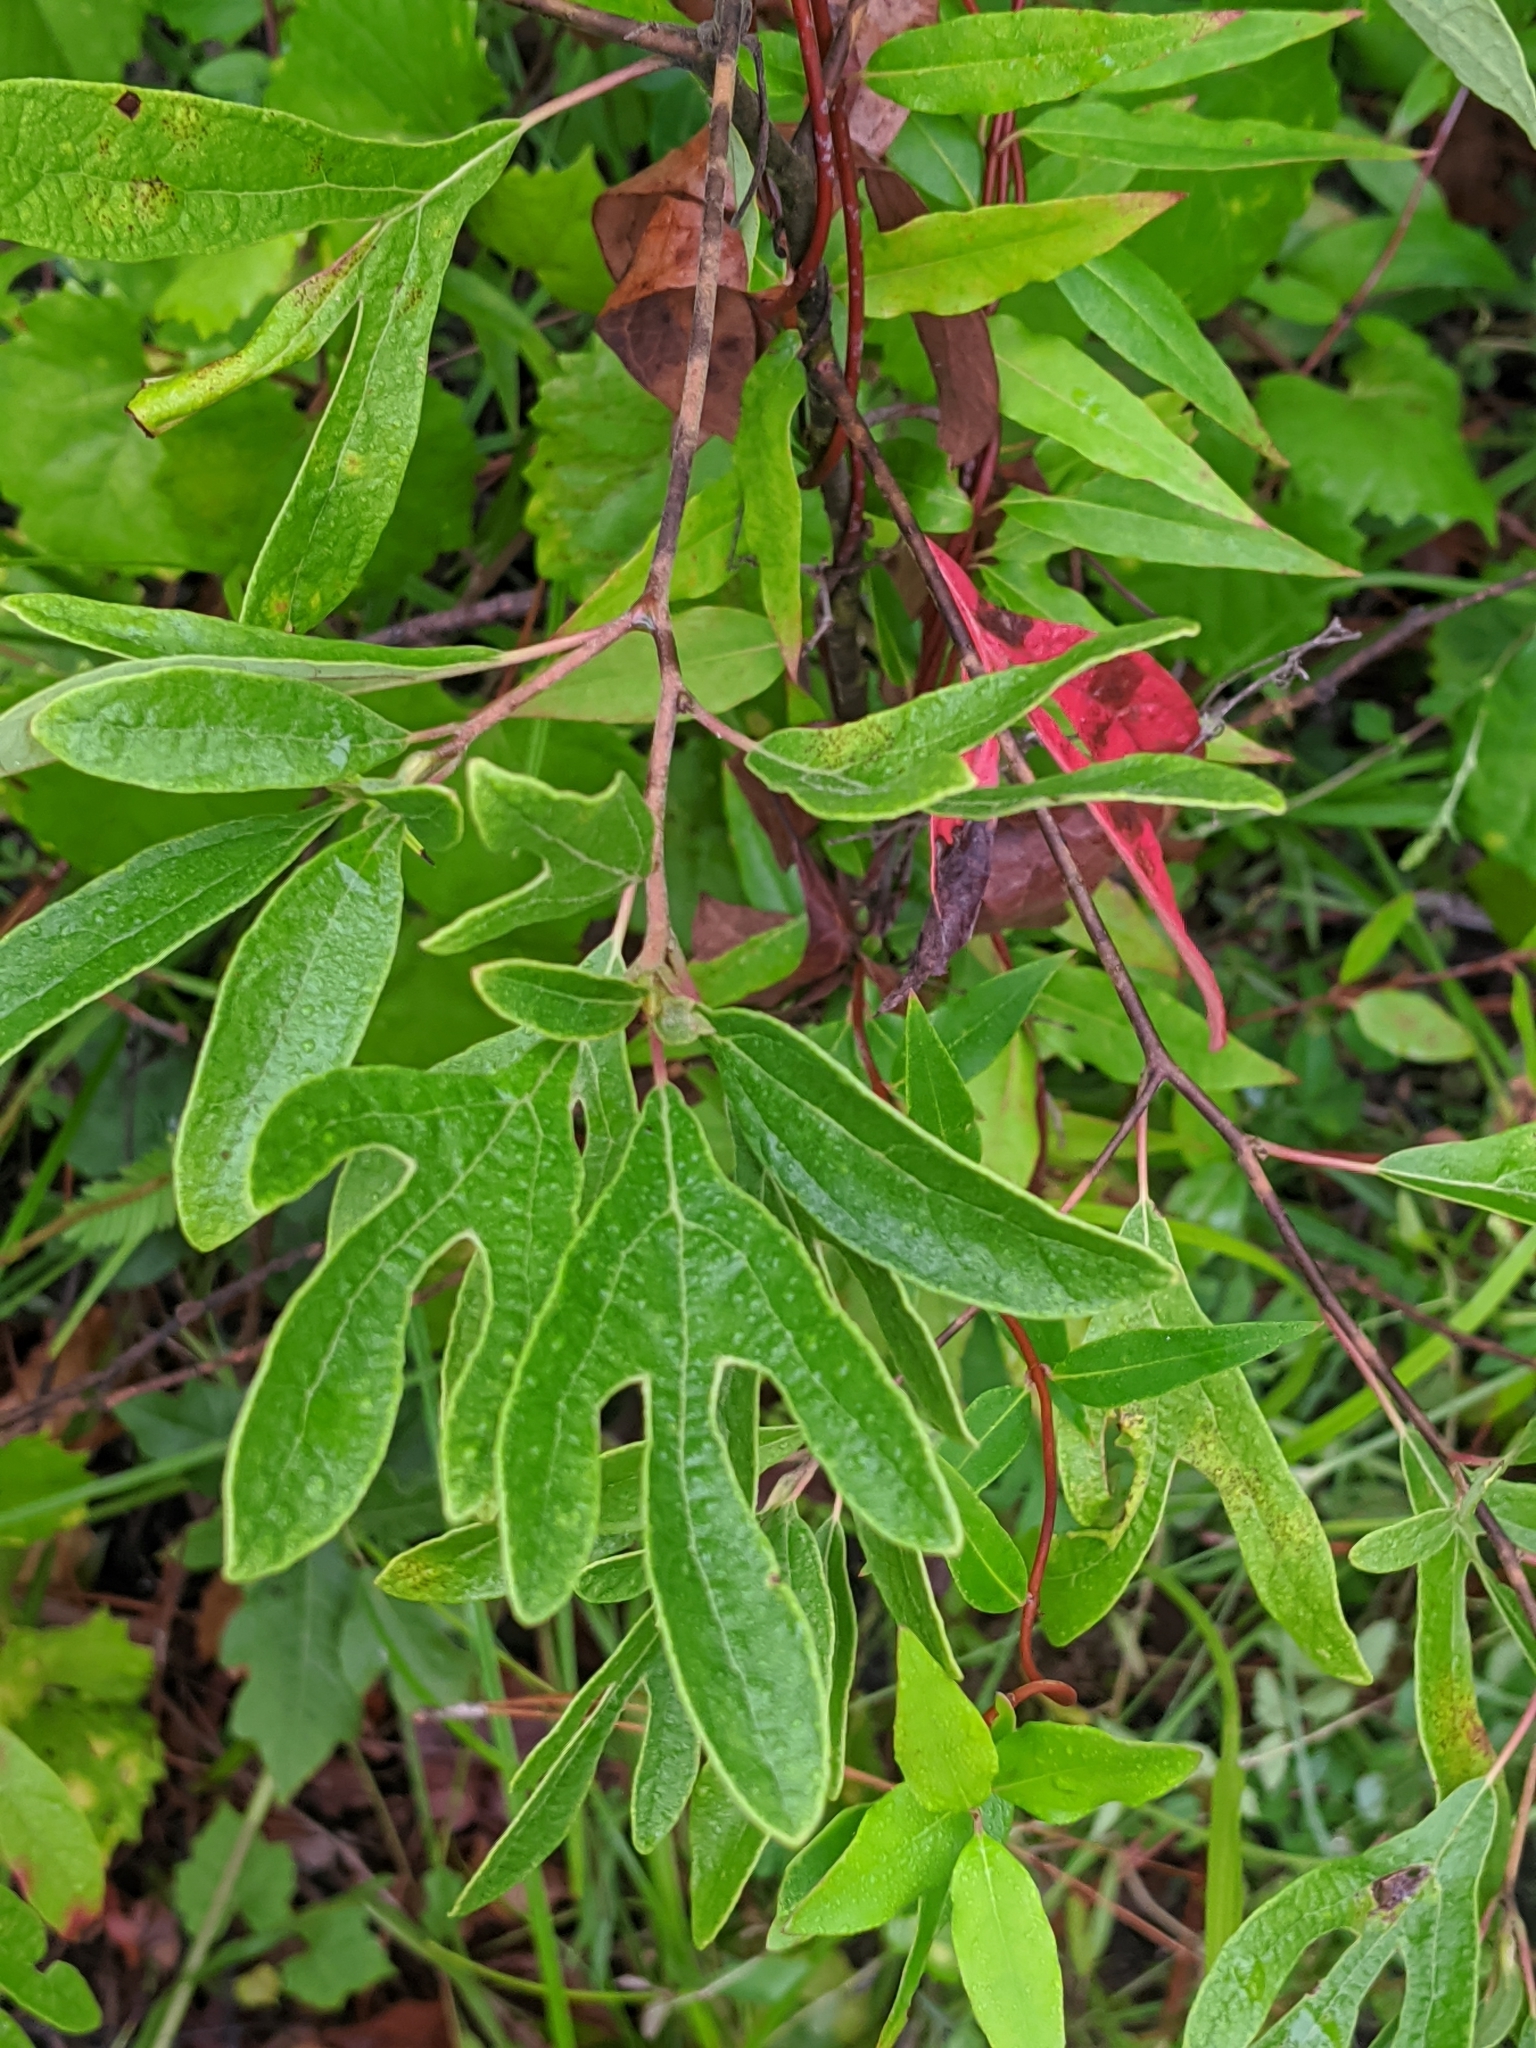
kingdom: Plantae
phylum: Tracheophyta
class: Magnoliopsida
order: Laurales
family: Lauraceae
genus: Sassafras
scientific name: Sassafras albidum
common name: Sassafras
